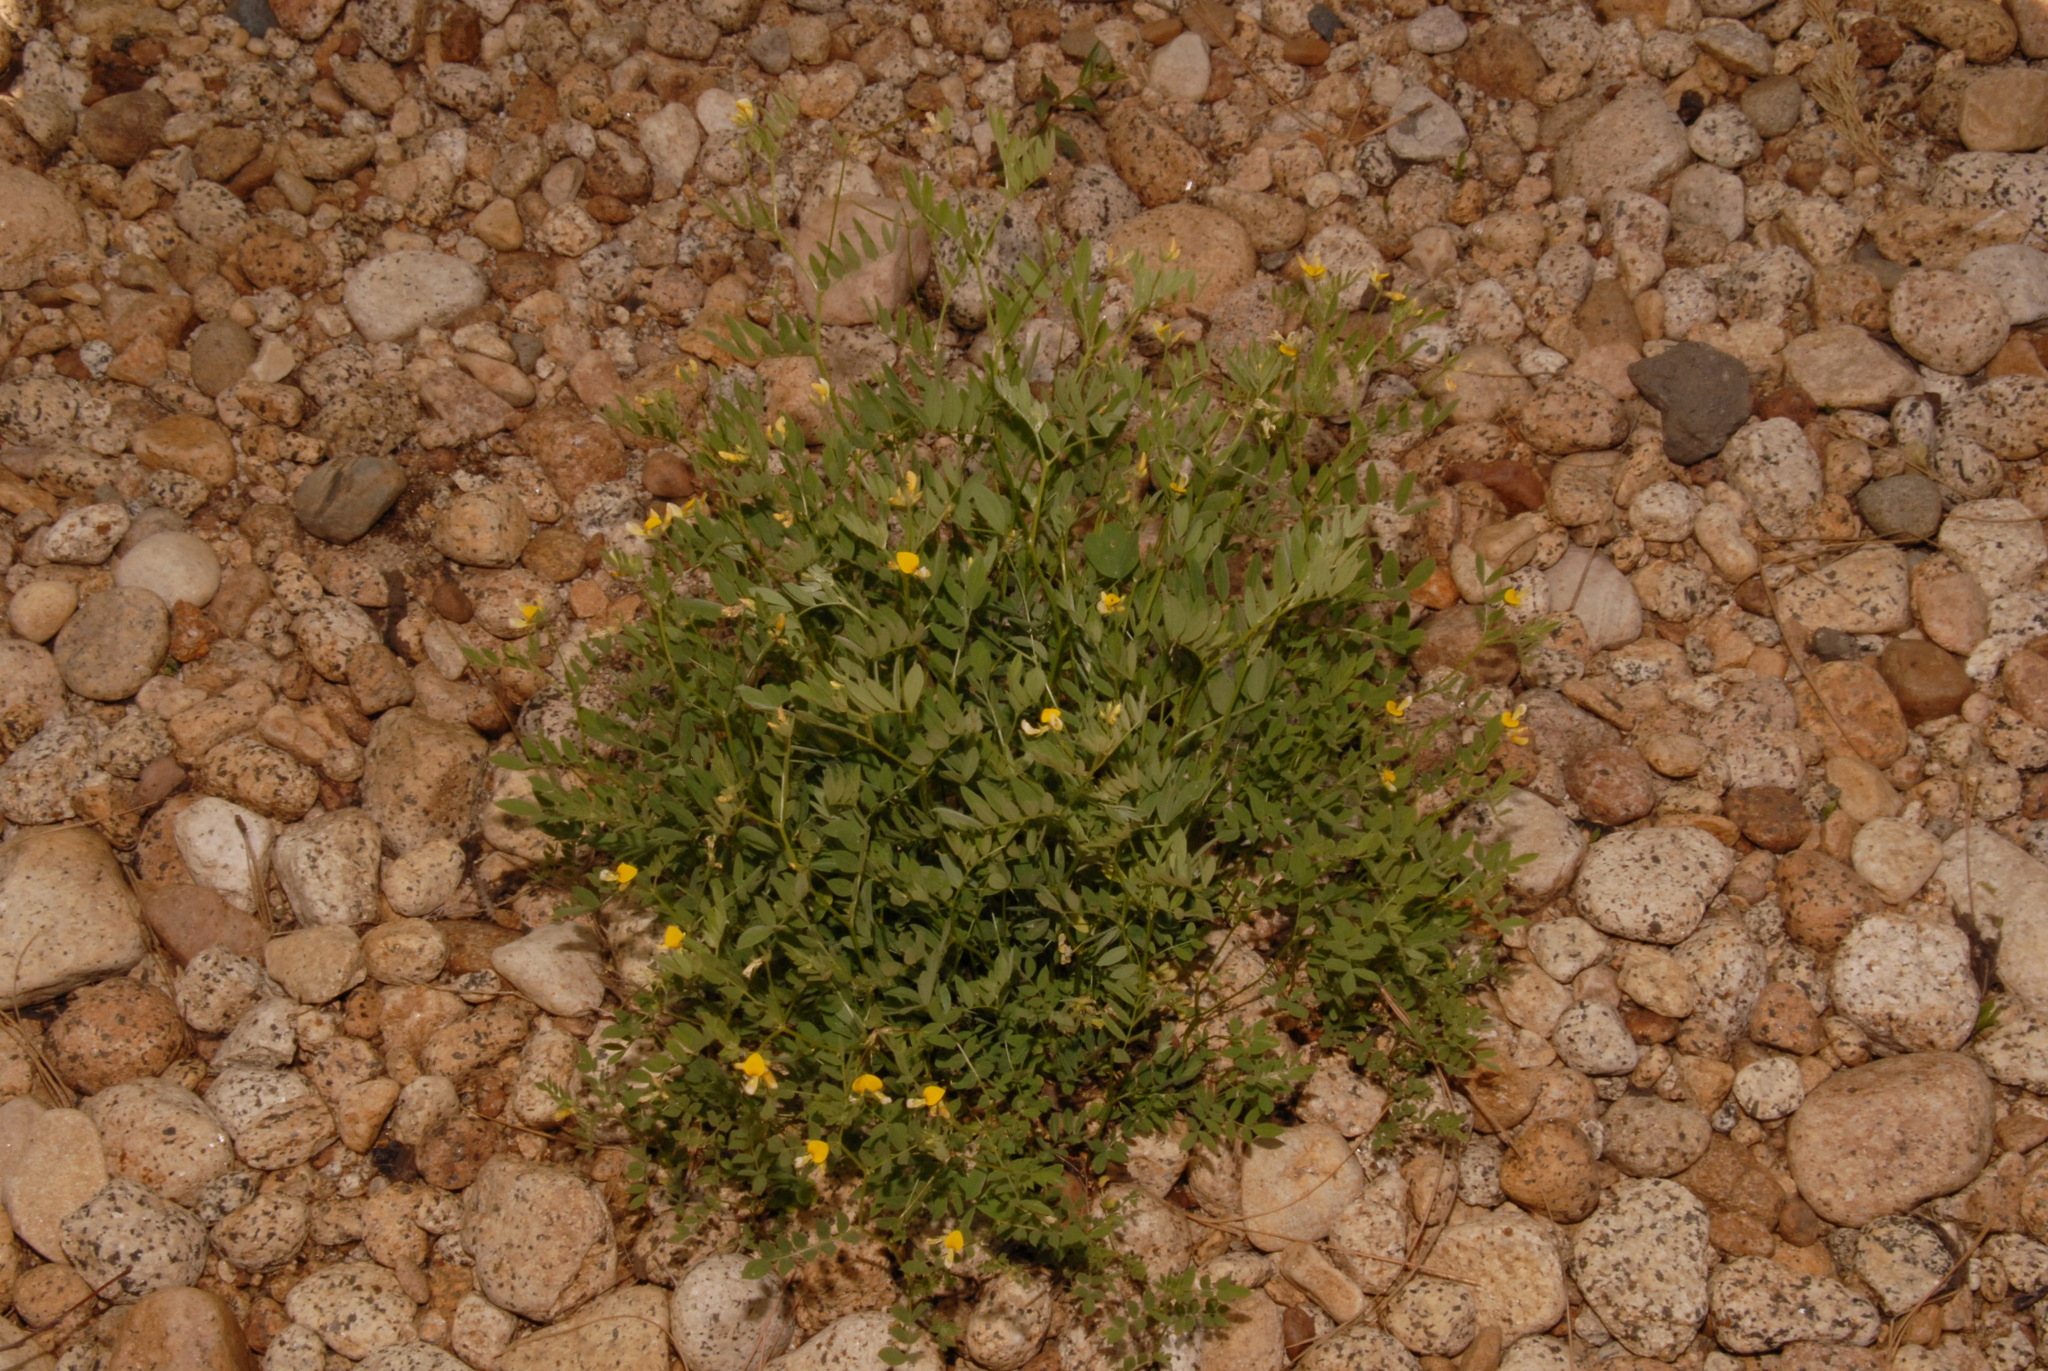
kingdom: Plantae
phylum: Tracheophyta
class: Magnoliopsida
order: Fabales
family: Fabaceae
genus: Hosackia
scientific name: Hosackia oblongifolia
